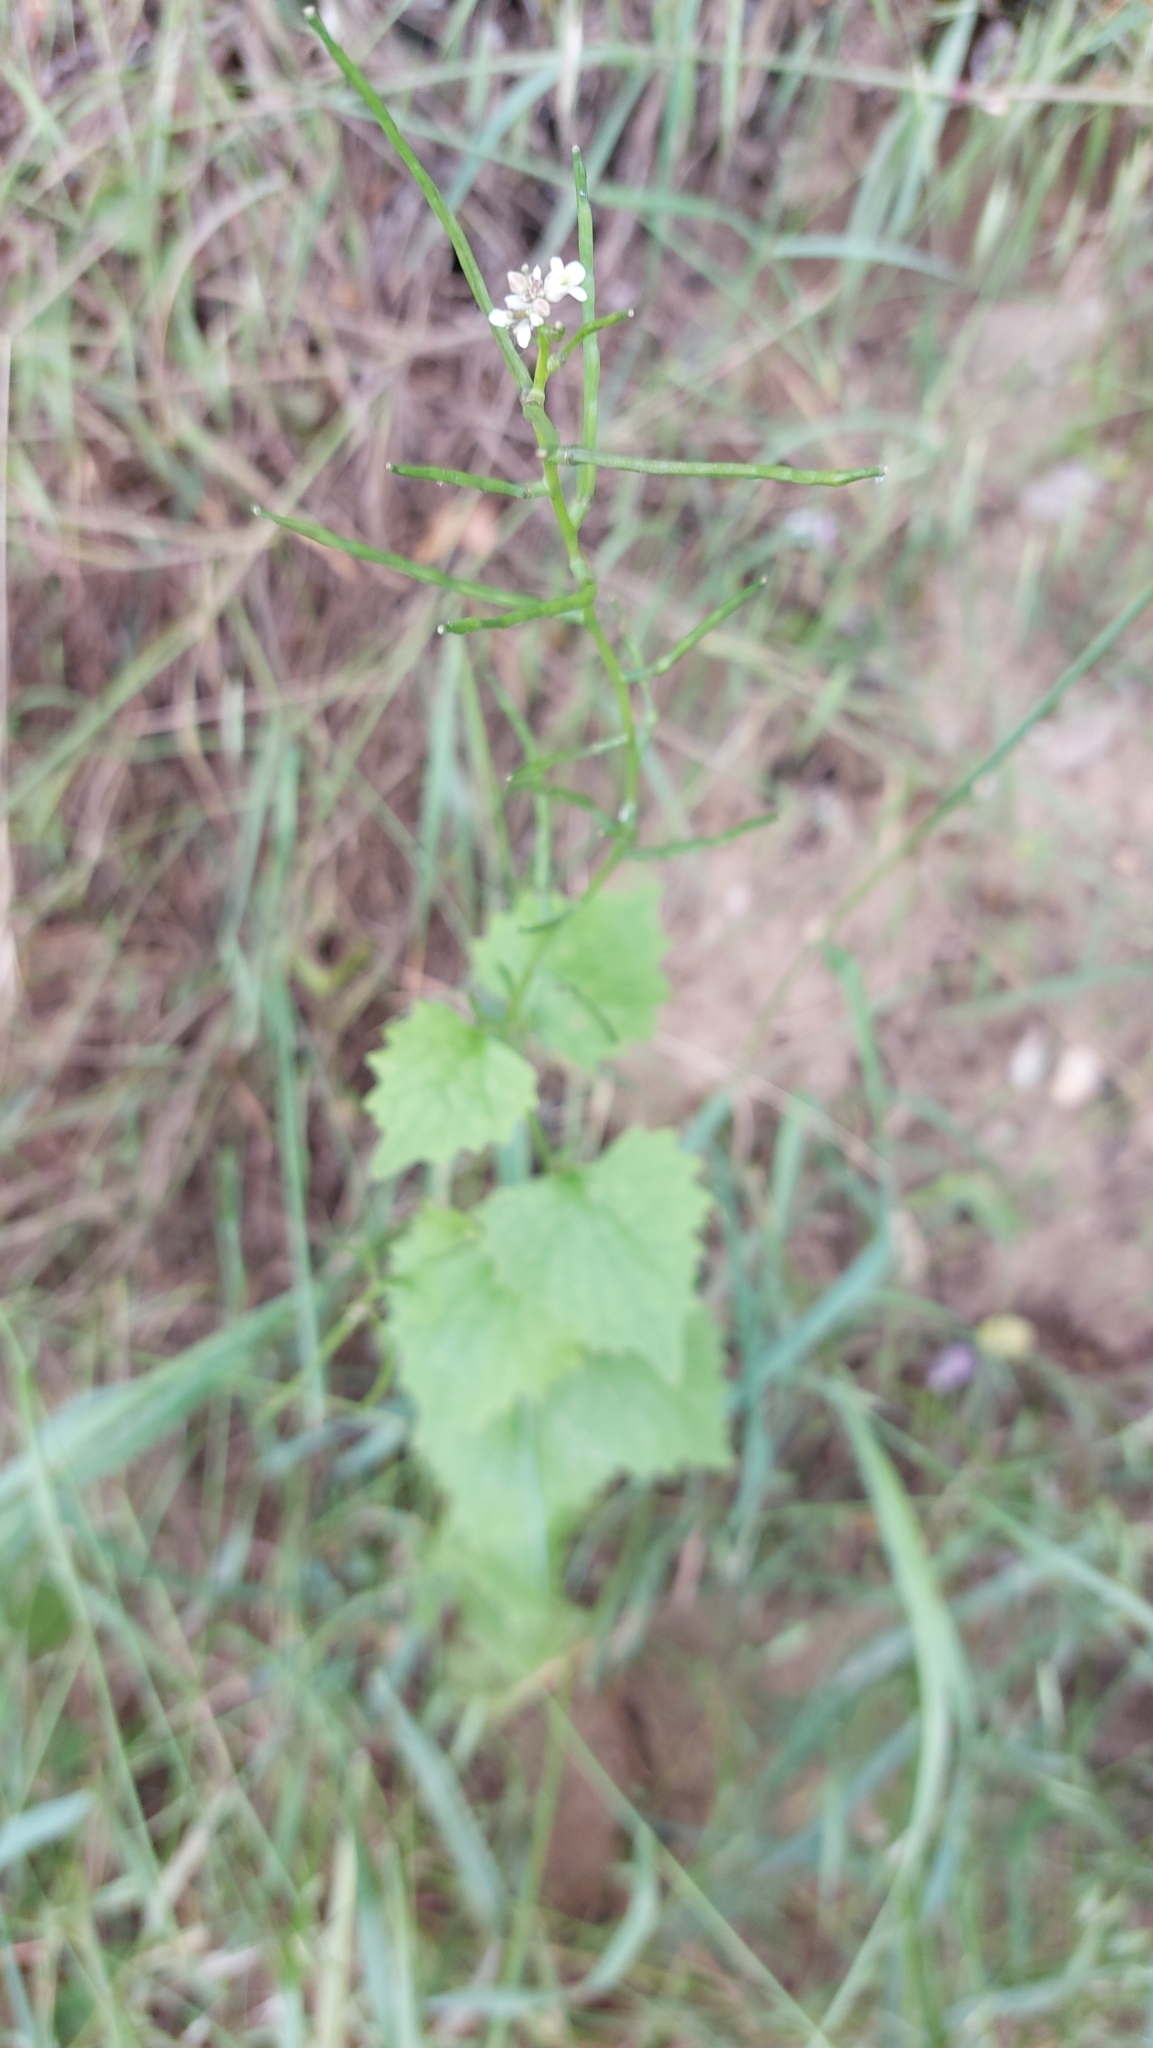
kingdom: Plantae
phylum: Tracheophyta
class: Magnoliopsida
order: Brassicales
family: Brassicaceae
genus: Alliaria
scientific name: Alliaria petiolata
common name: Garlic mustard
